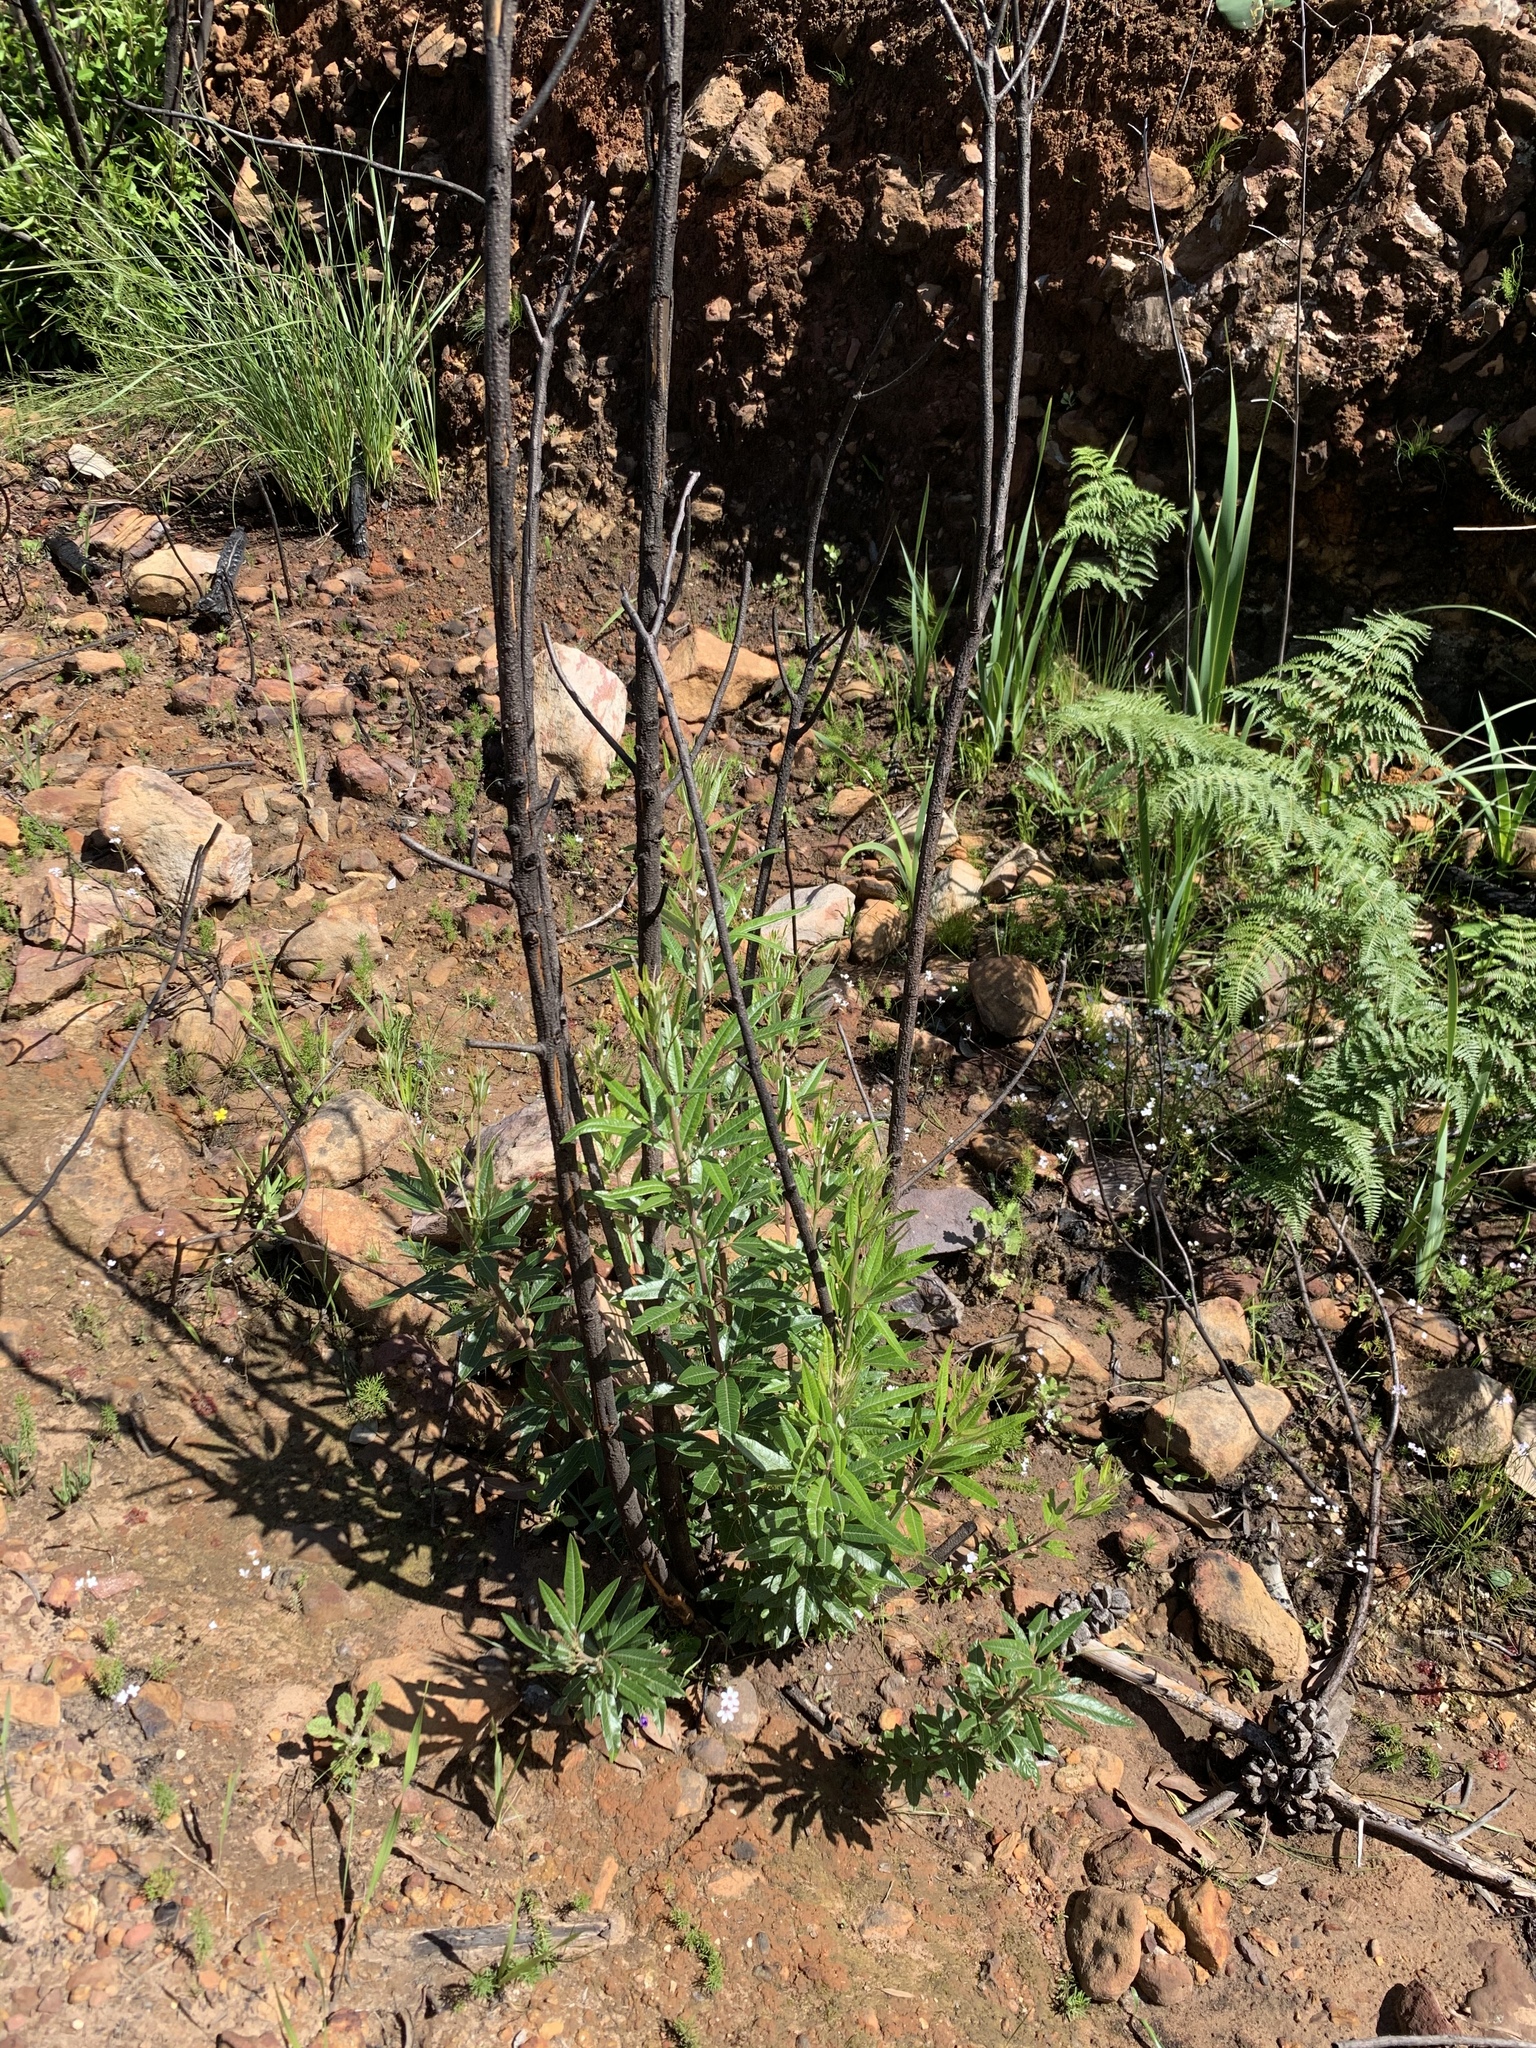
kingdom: Plantae
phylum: Tracheophyta
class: Magnoliopsida
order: Sapindales
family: Anacardiaceae
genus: Searsia
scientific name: Searsia angustifolia
